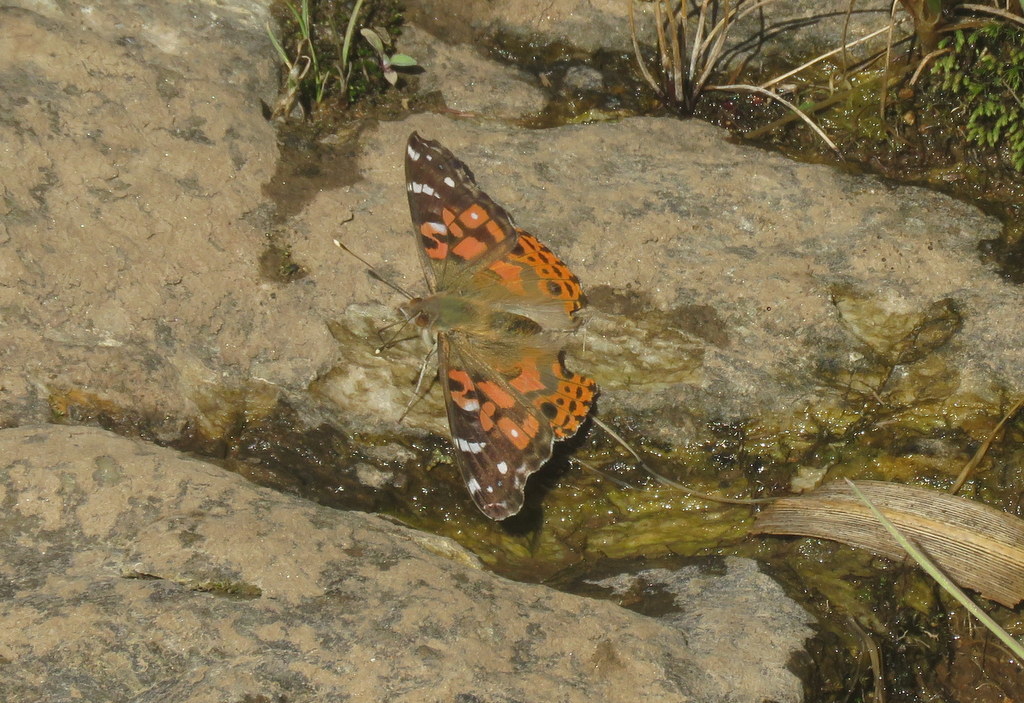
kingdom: Animalia
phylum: Arthropoda
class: Insecta
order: Lepidoptera
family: Nymphalidae
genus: Vanessa
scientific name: Vanessa braziliensis
